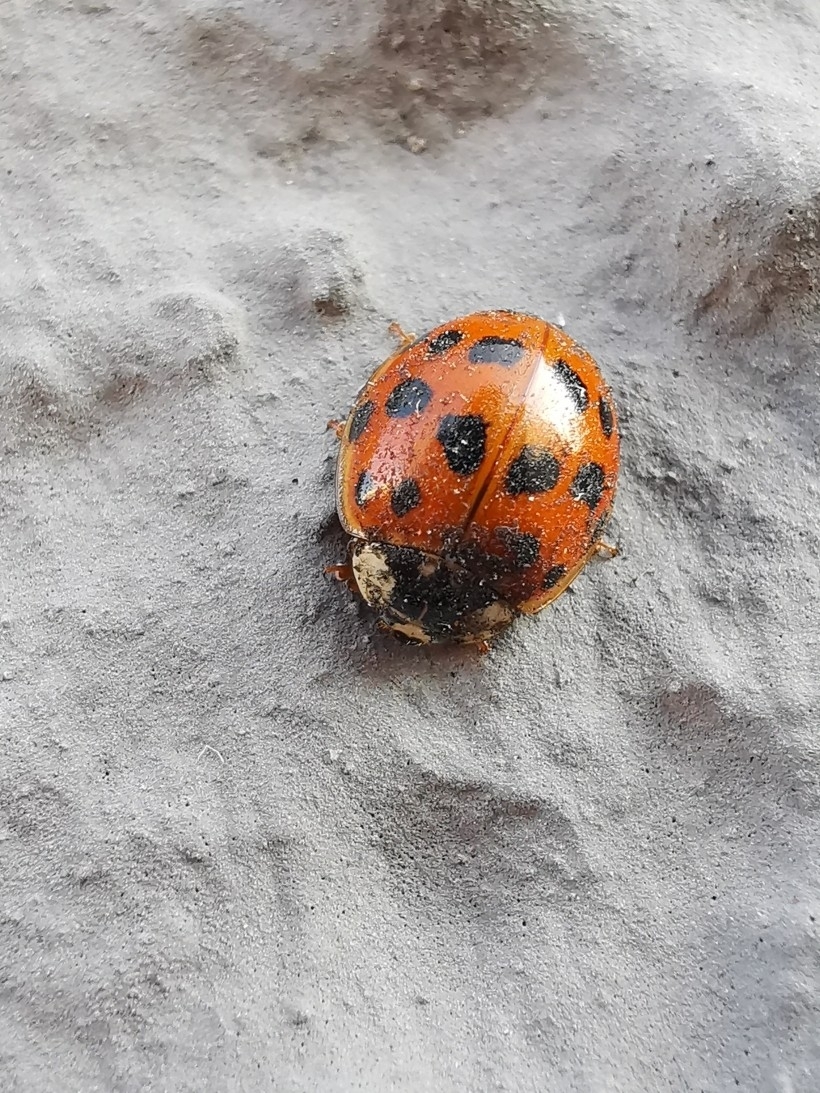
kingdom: Animalia
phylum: Arthropoda
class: Insecta
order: Coleoptera
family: Coccinellidae
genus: Harmonia
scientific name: Harmonia axyridis
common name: Harlequin ladybird
